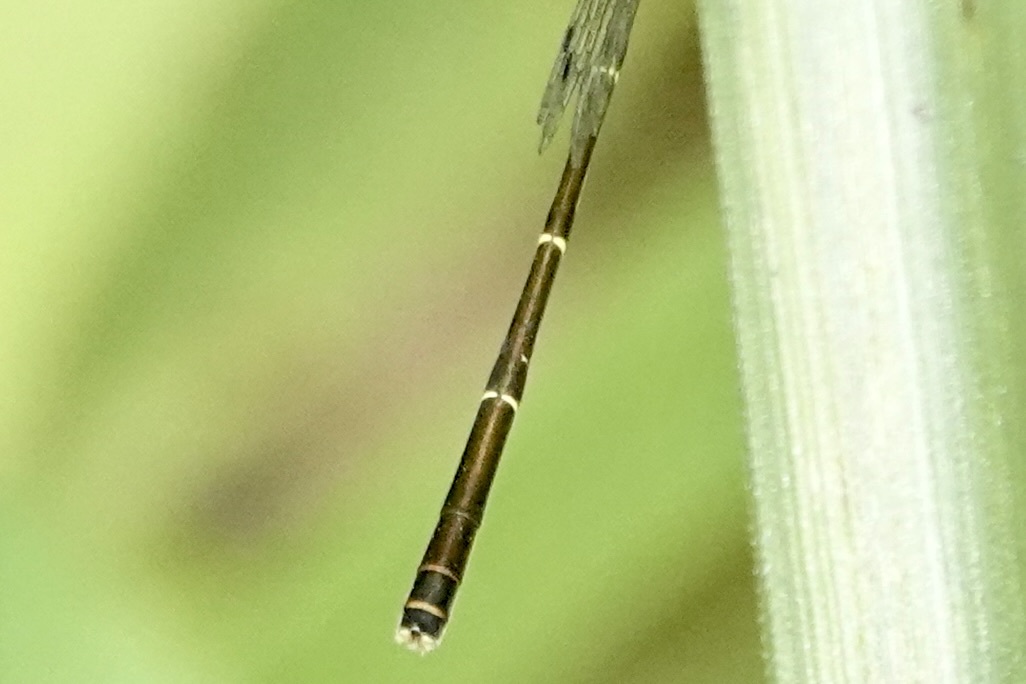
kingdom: Animalia
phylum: Arthropoda
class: Insecta
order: Odonata
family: Coenagrionidae
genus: Ischnura
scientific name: Ischnura posita
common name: Fragile forktail
